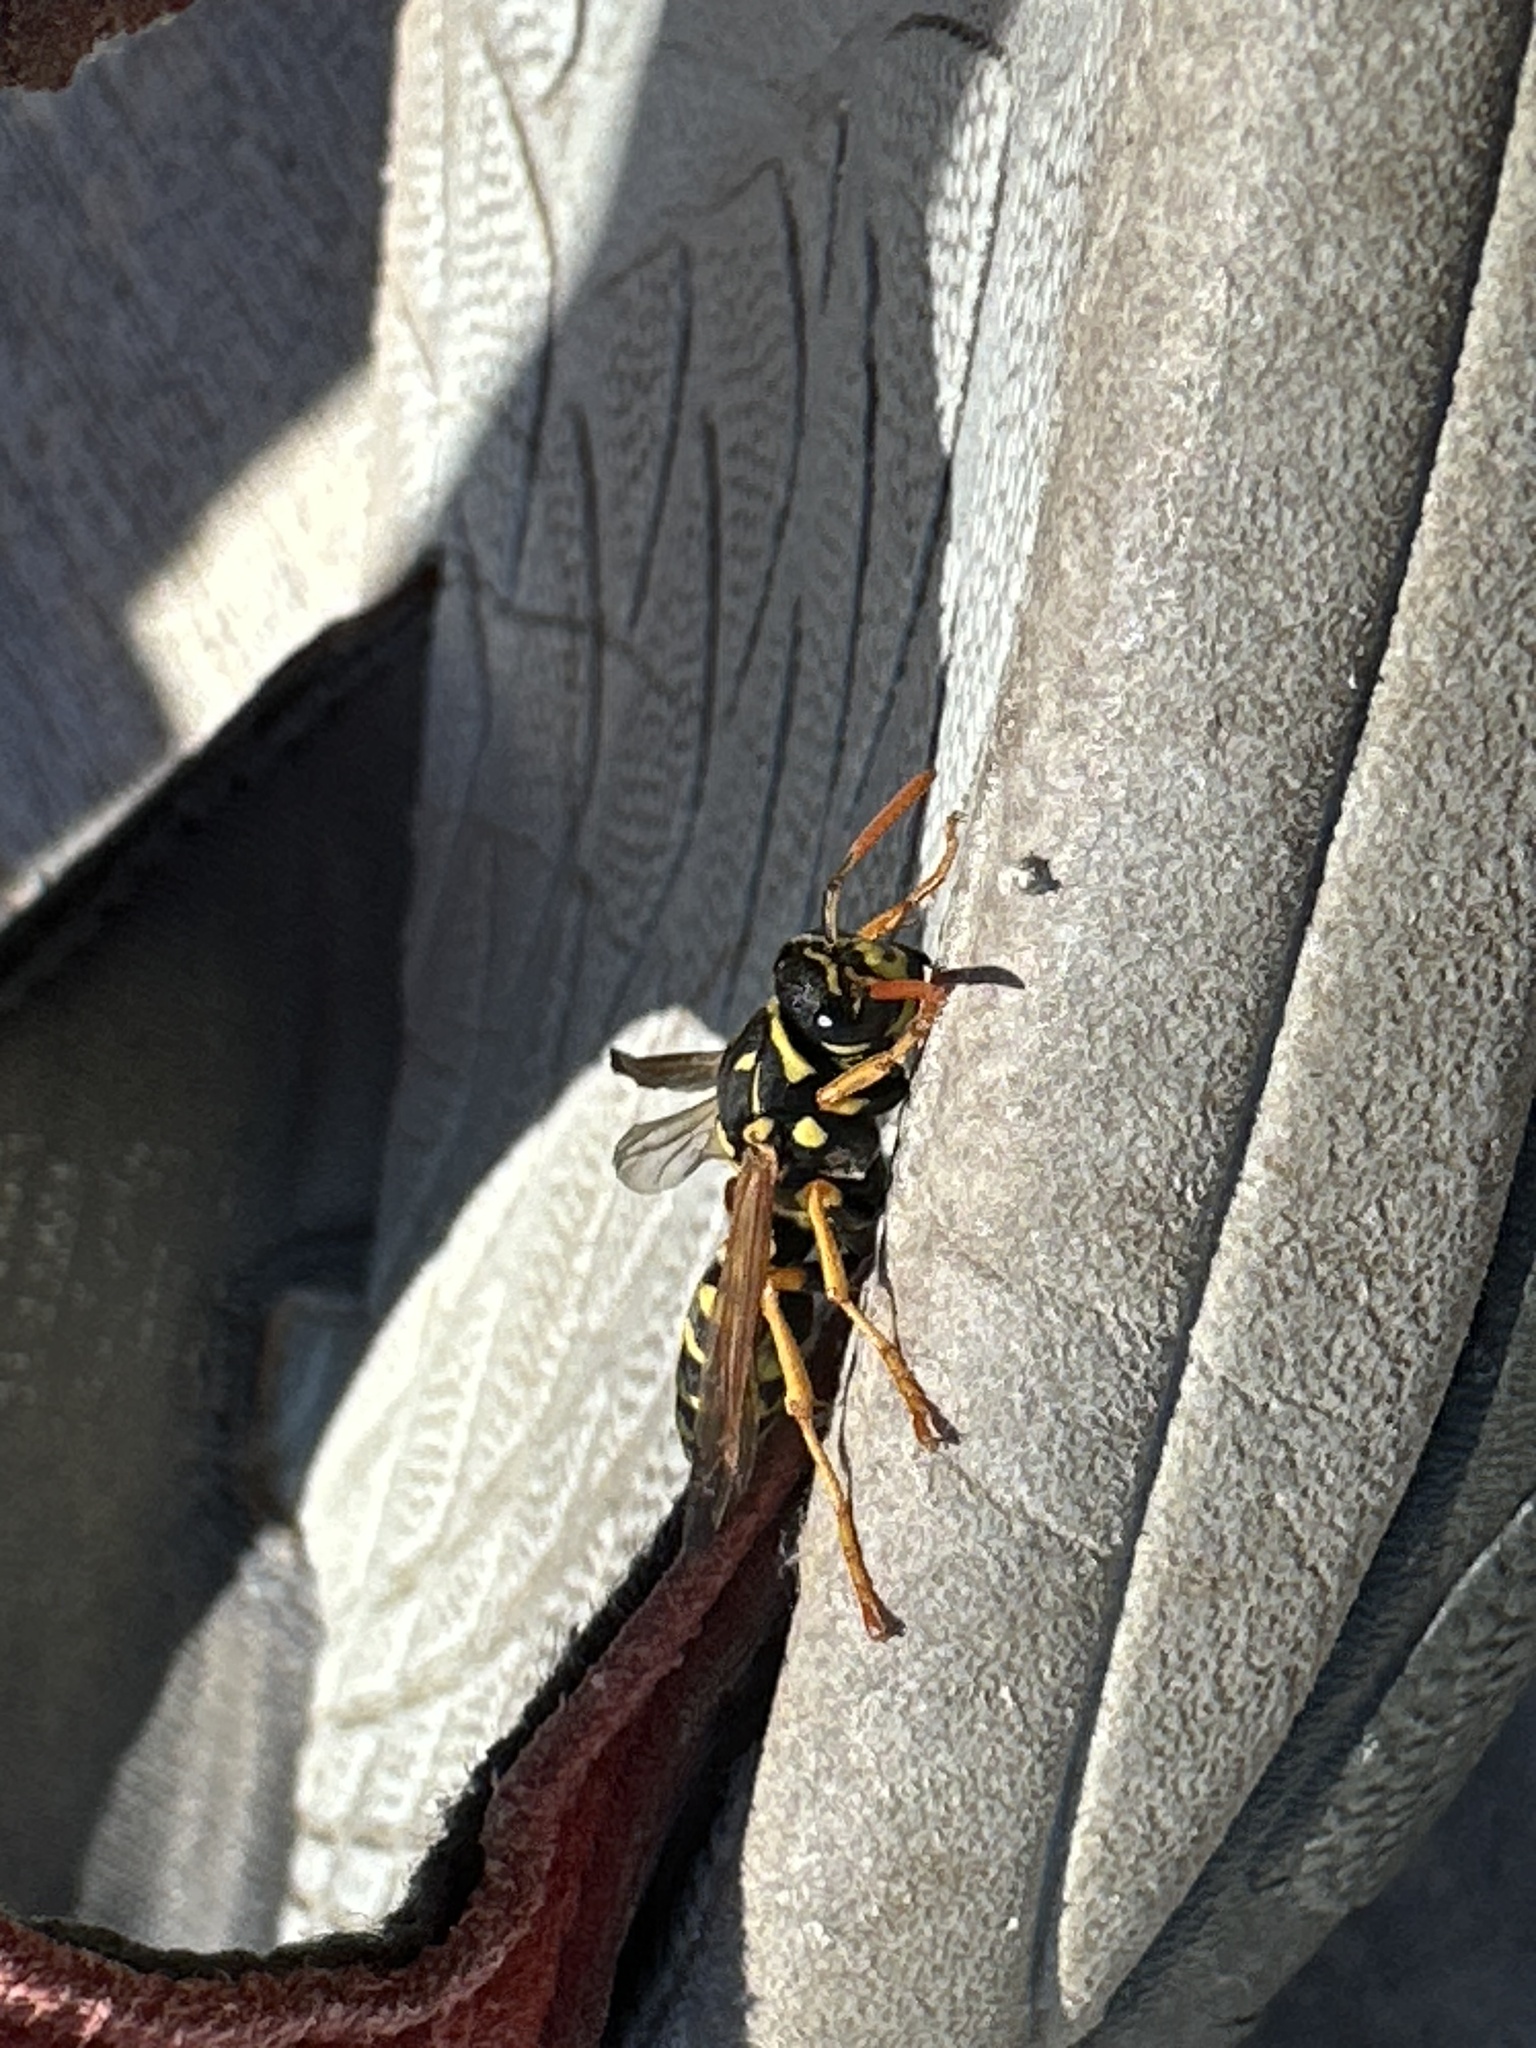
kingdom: Animalia
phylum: Arthropoda
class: Insecta
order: Hymenoptera
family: Eumenidae
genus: Polistes
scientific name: Polistes dominula
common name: Paper wasp
